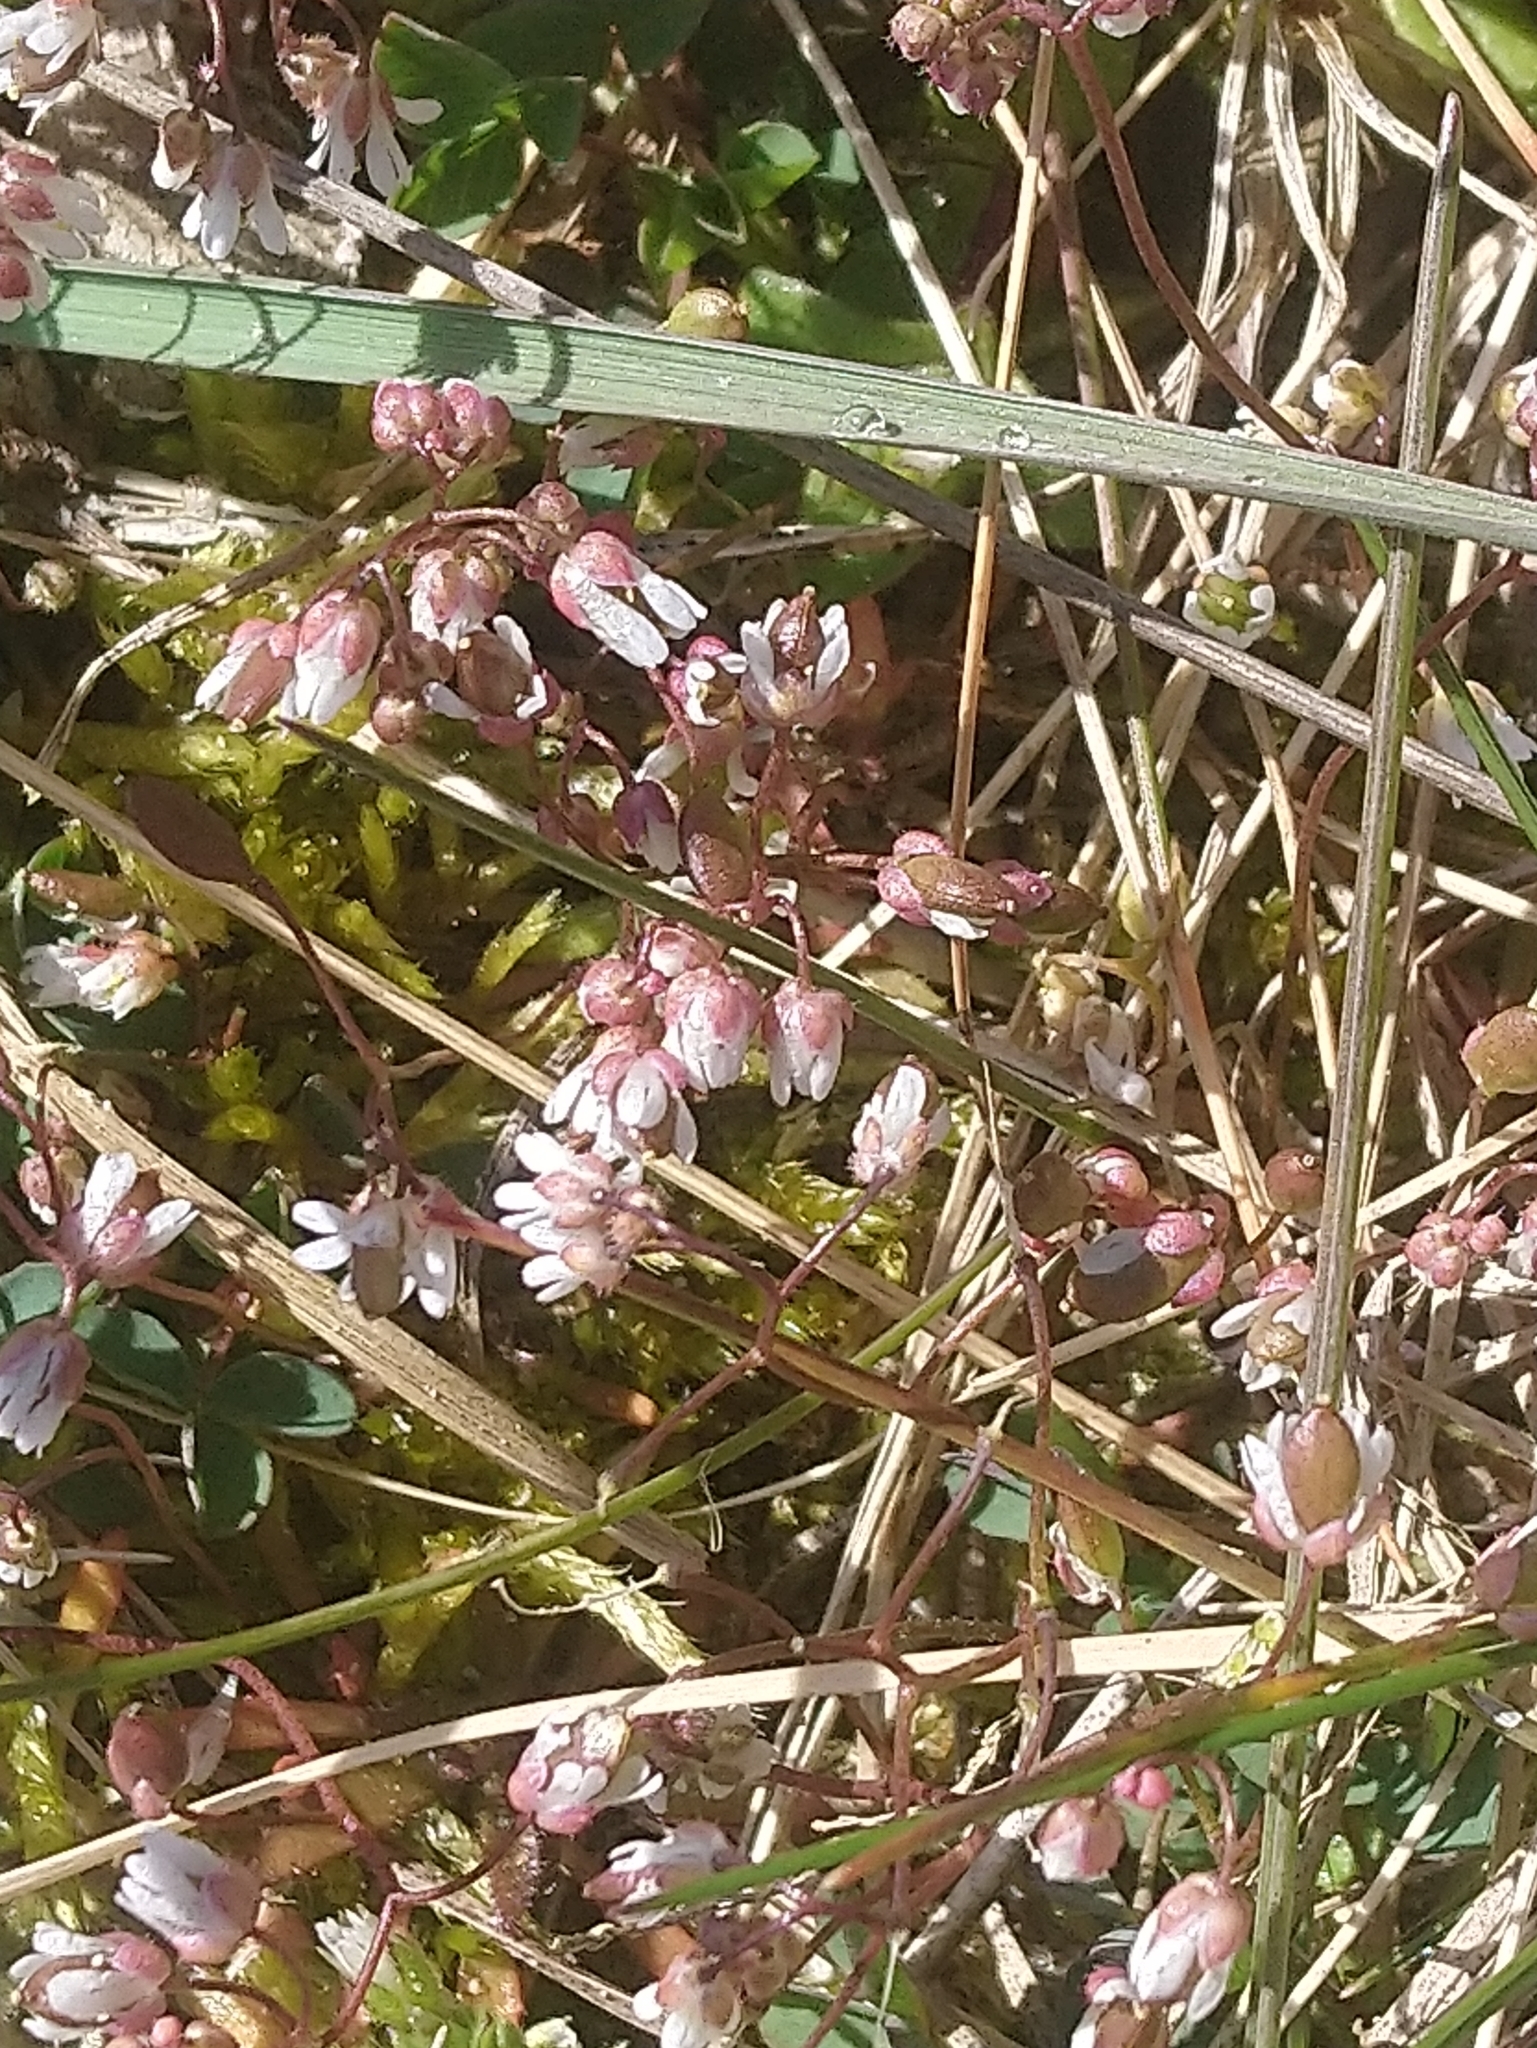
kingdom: Plantae
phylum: Tracheophyta
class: Magnoliopsida
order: Brassicales
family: Brassicaceae
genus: Draba
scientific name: Draba verna
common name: Spring draba
